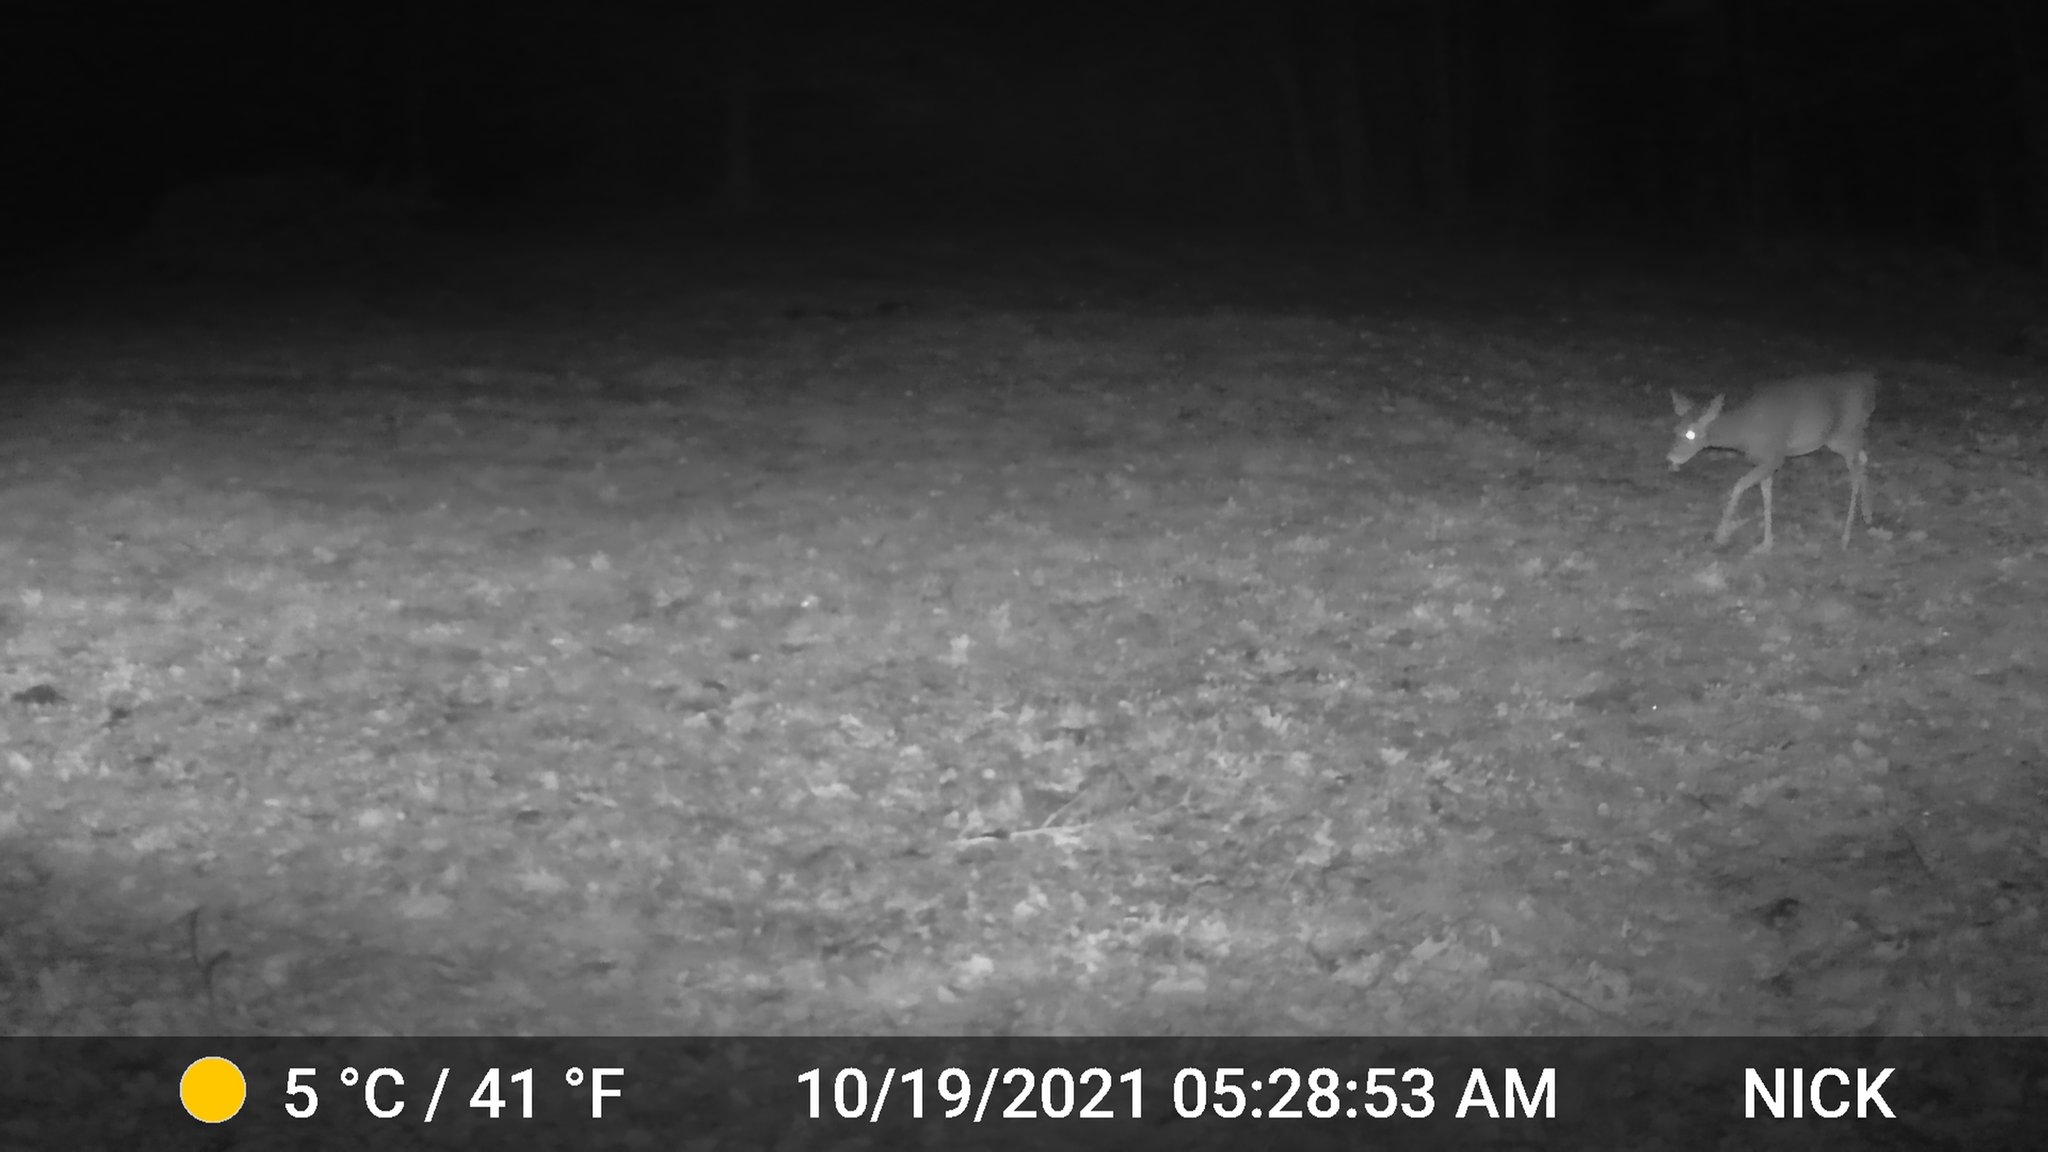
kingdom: Animalia
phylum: Chordata
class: Mammalia
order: Artiodactyla
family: Cervidae
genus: Odocoileus
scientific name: Odocoileus virginianus
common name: White-tailed deer
